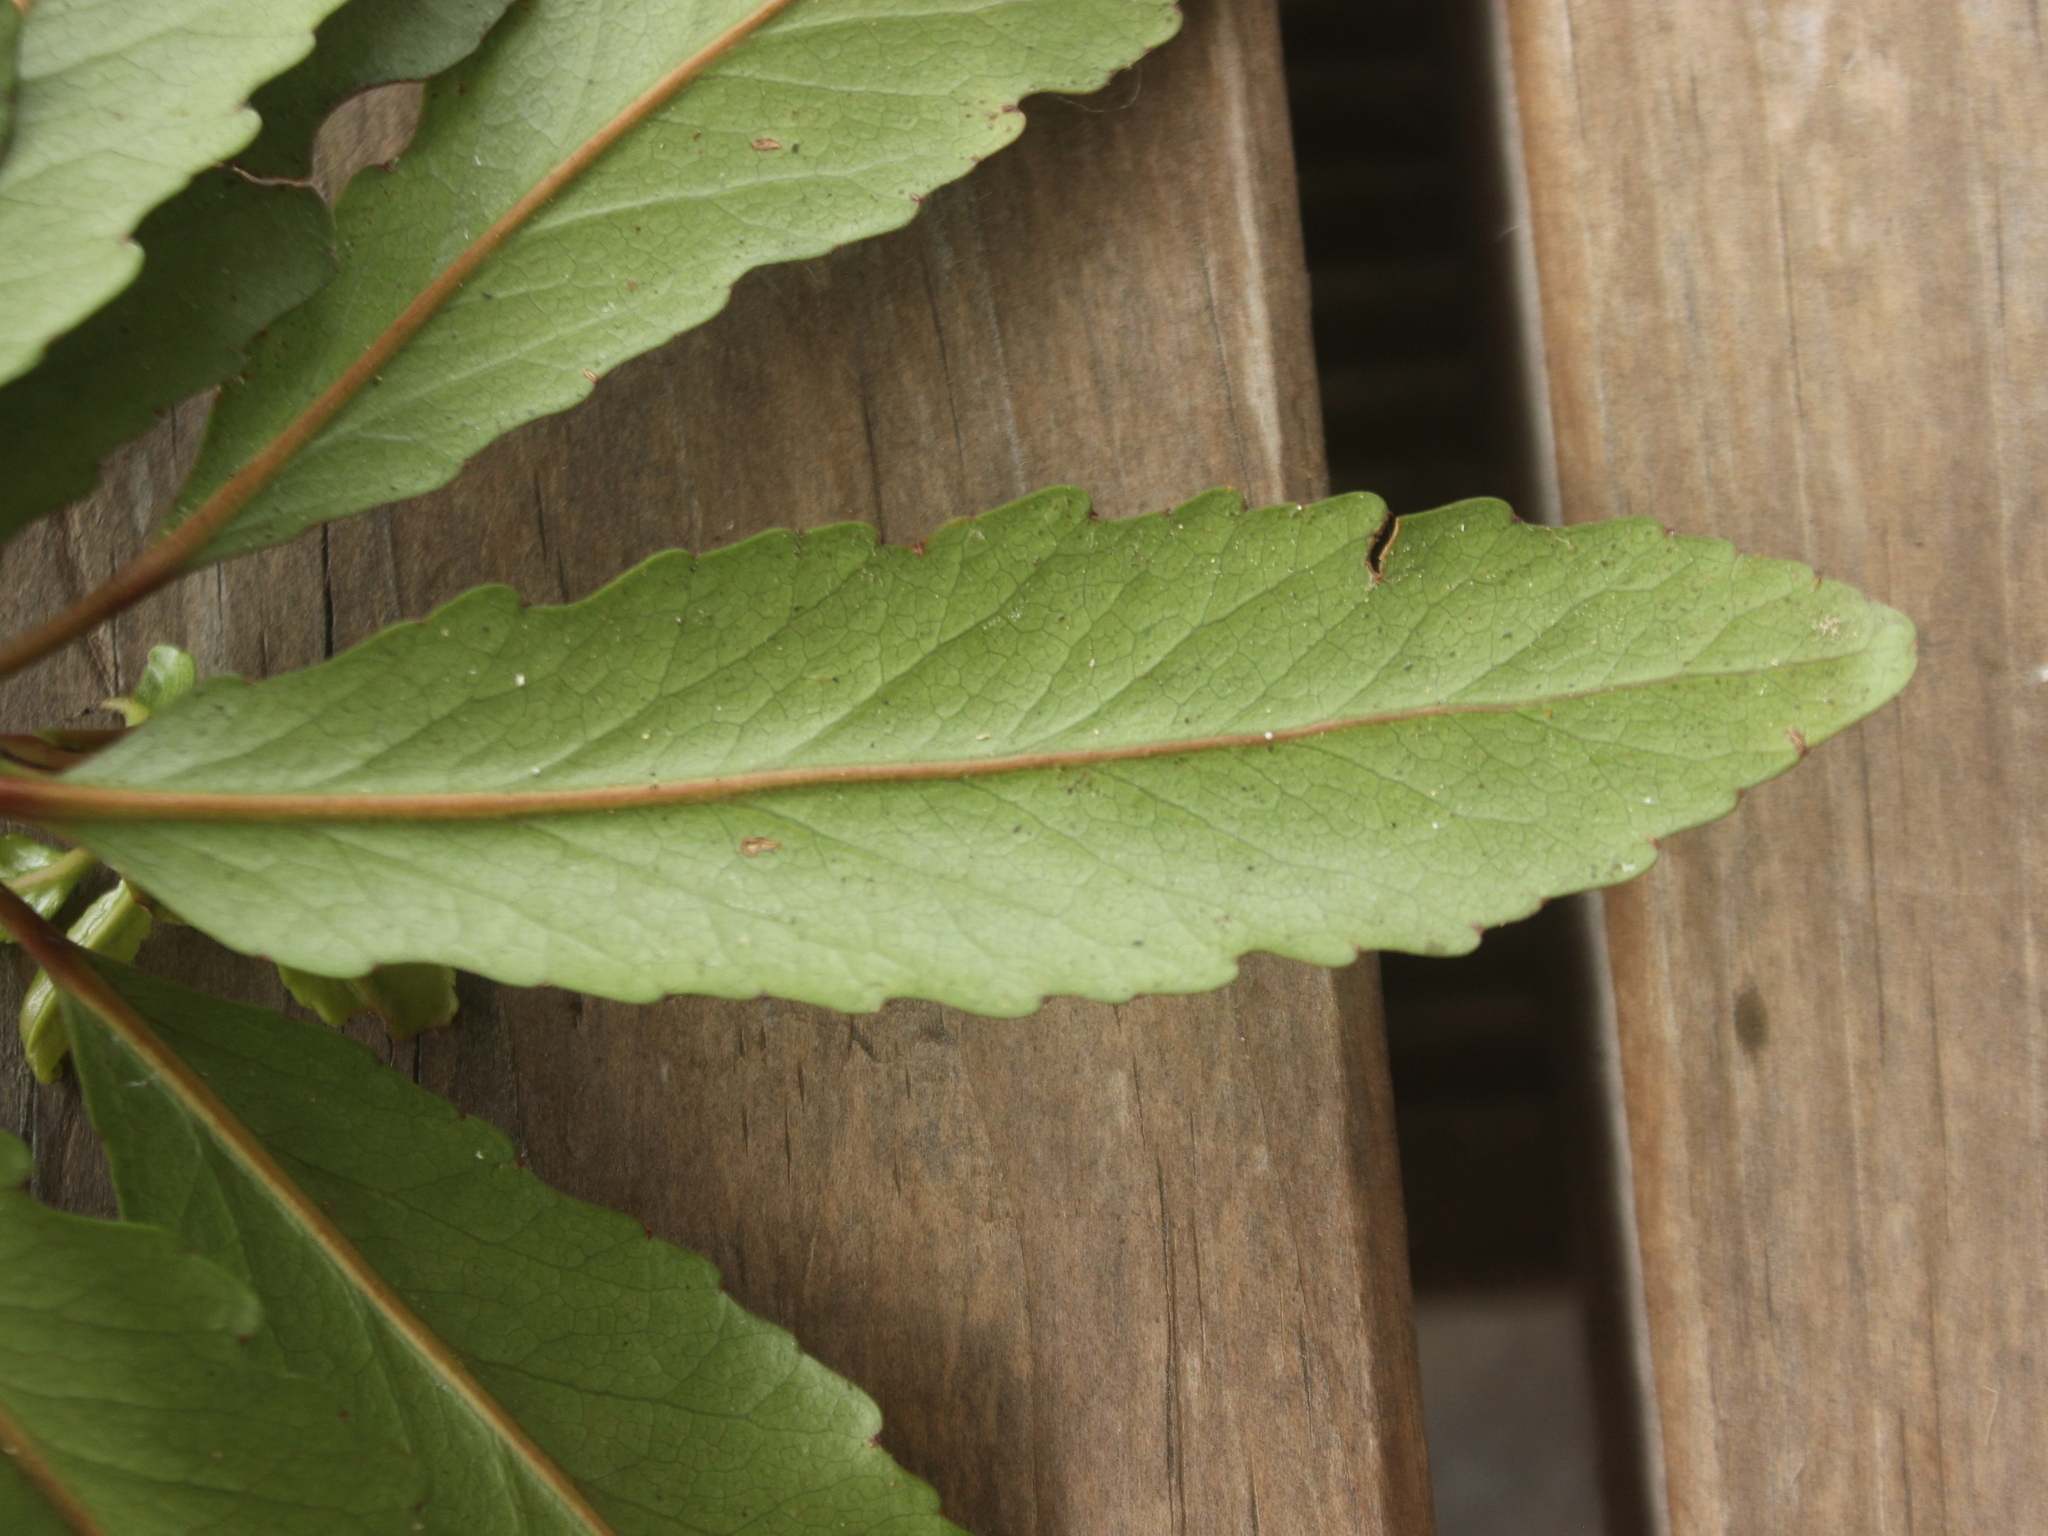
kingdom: Plantae
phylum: Tracheophyta
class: Magnoliopsida
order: Oxalidales
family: Elaeocarpaceae
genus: Elaeocarpus
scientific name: Elaeocarpus hookerianus
